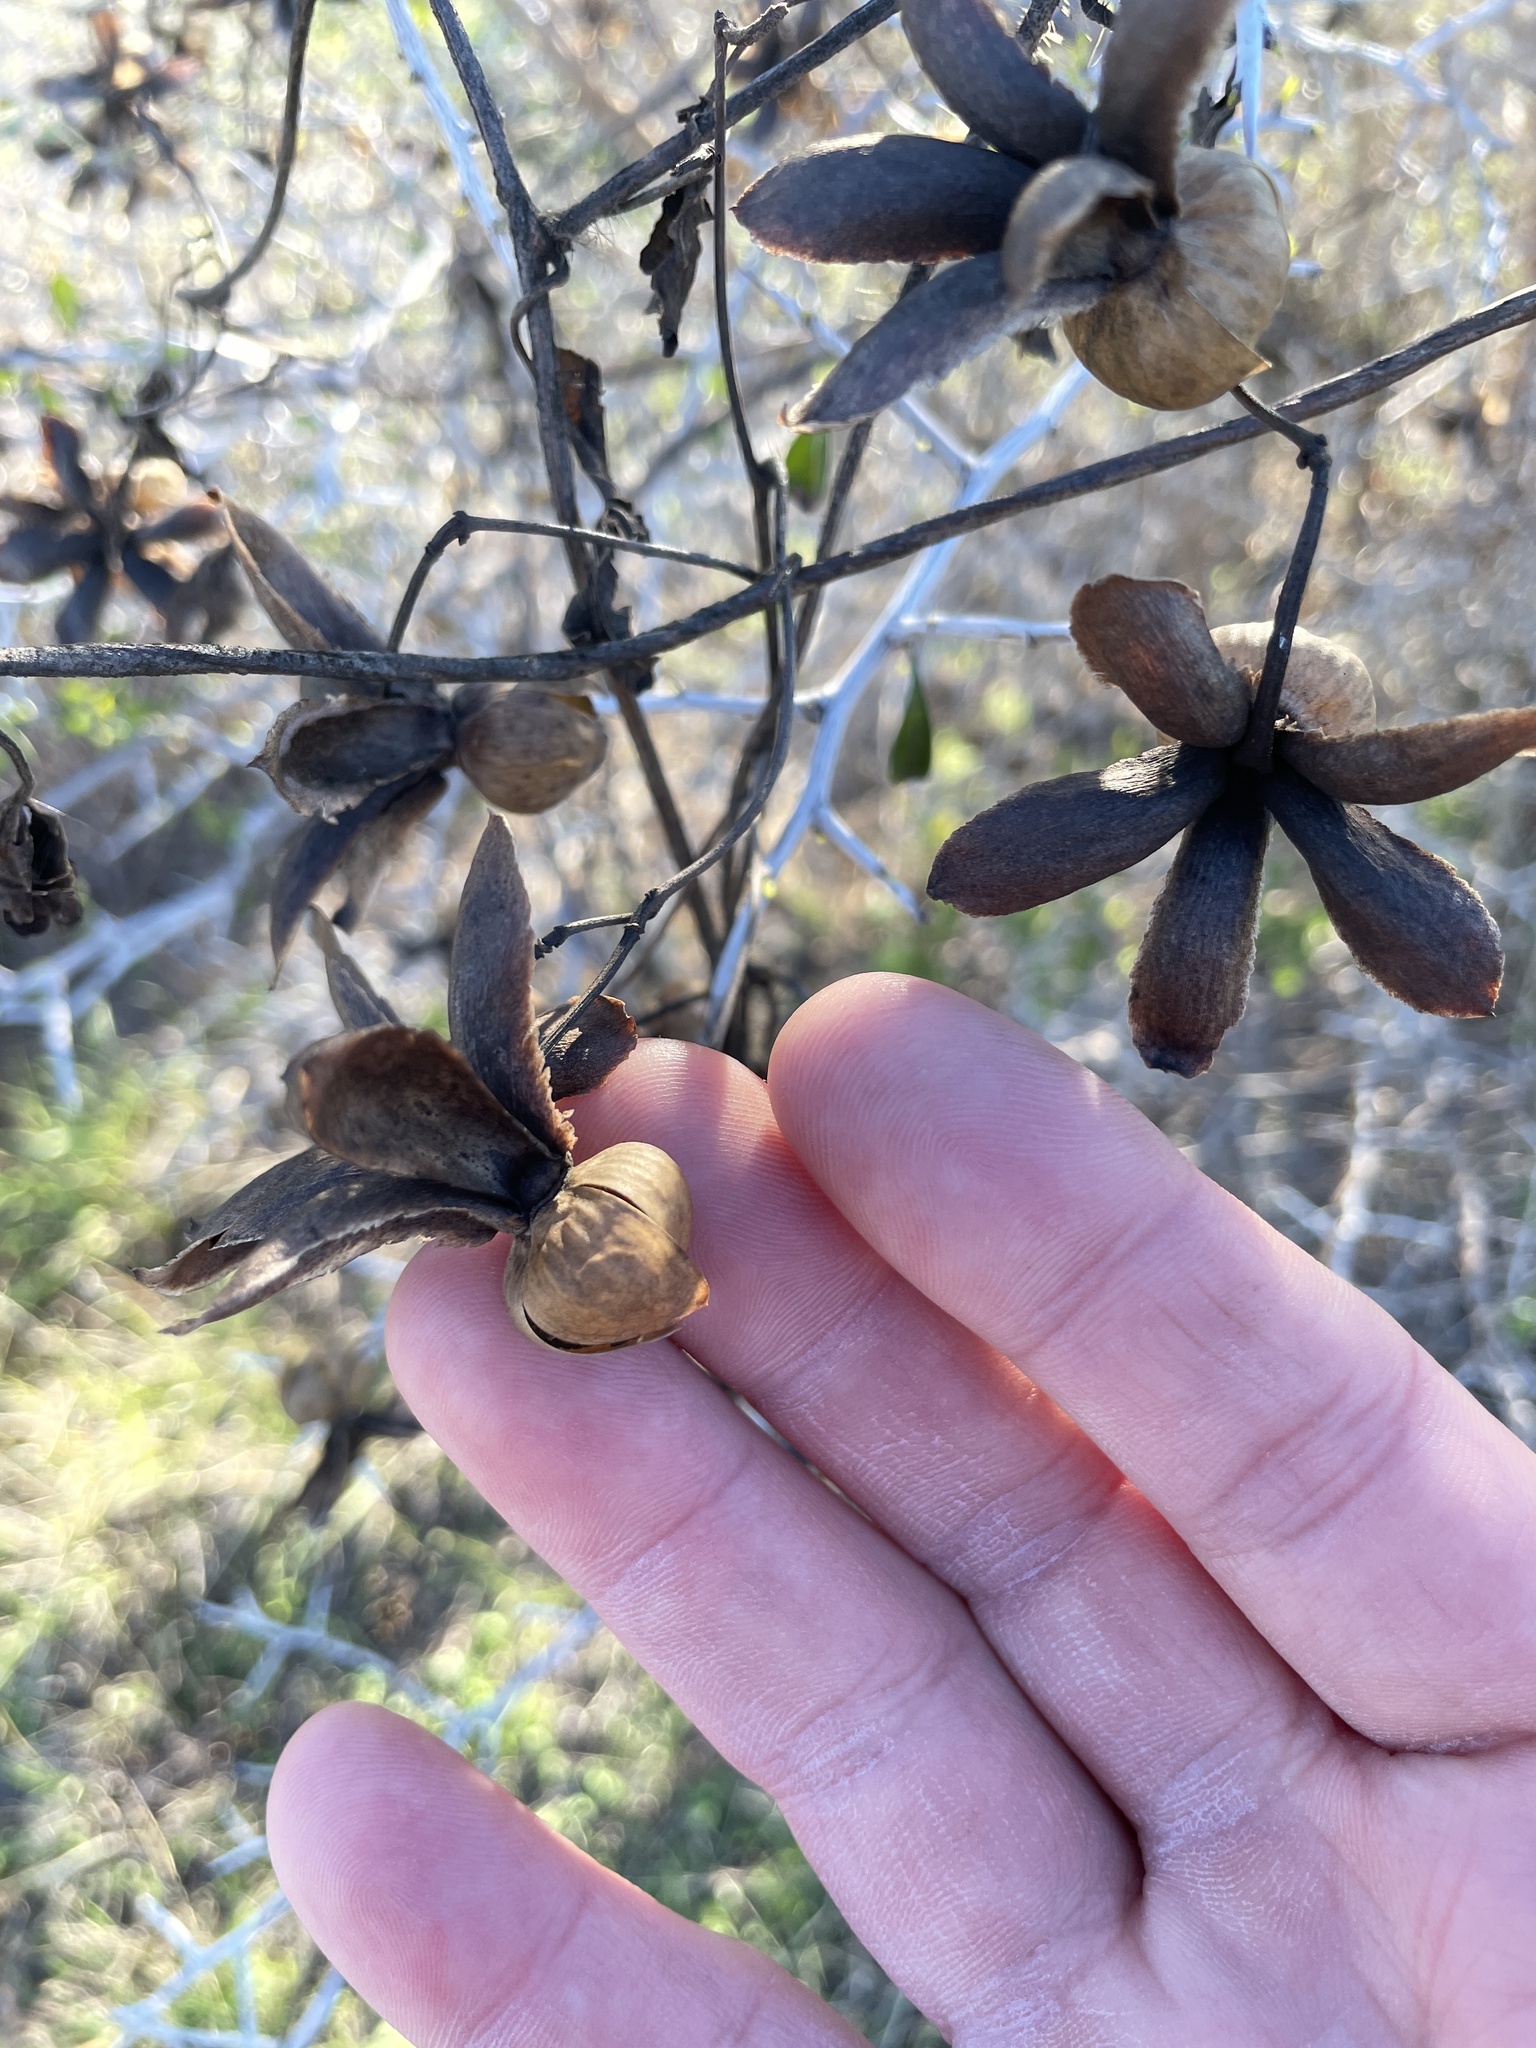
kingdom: Plantae
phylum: Tracheophyta
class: Magnoliopsida
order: Solanales
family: Convolvulaceae
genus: Distimake
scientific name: Distimake dissectus
